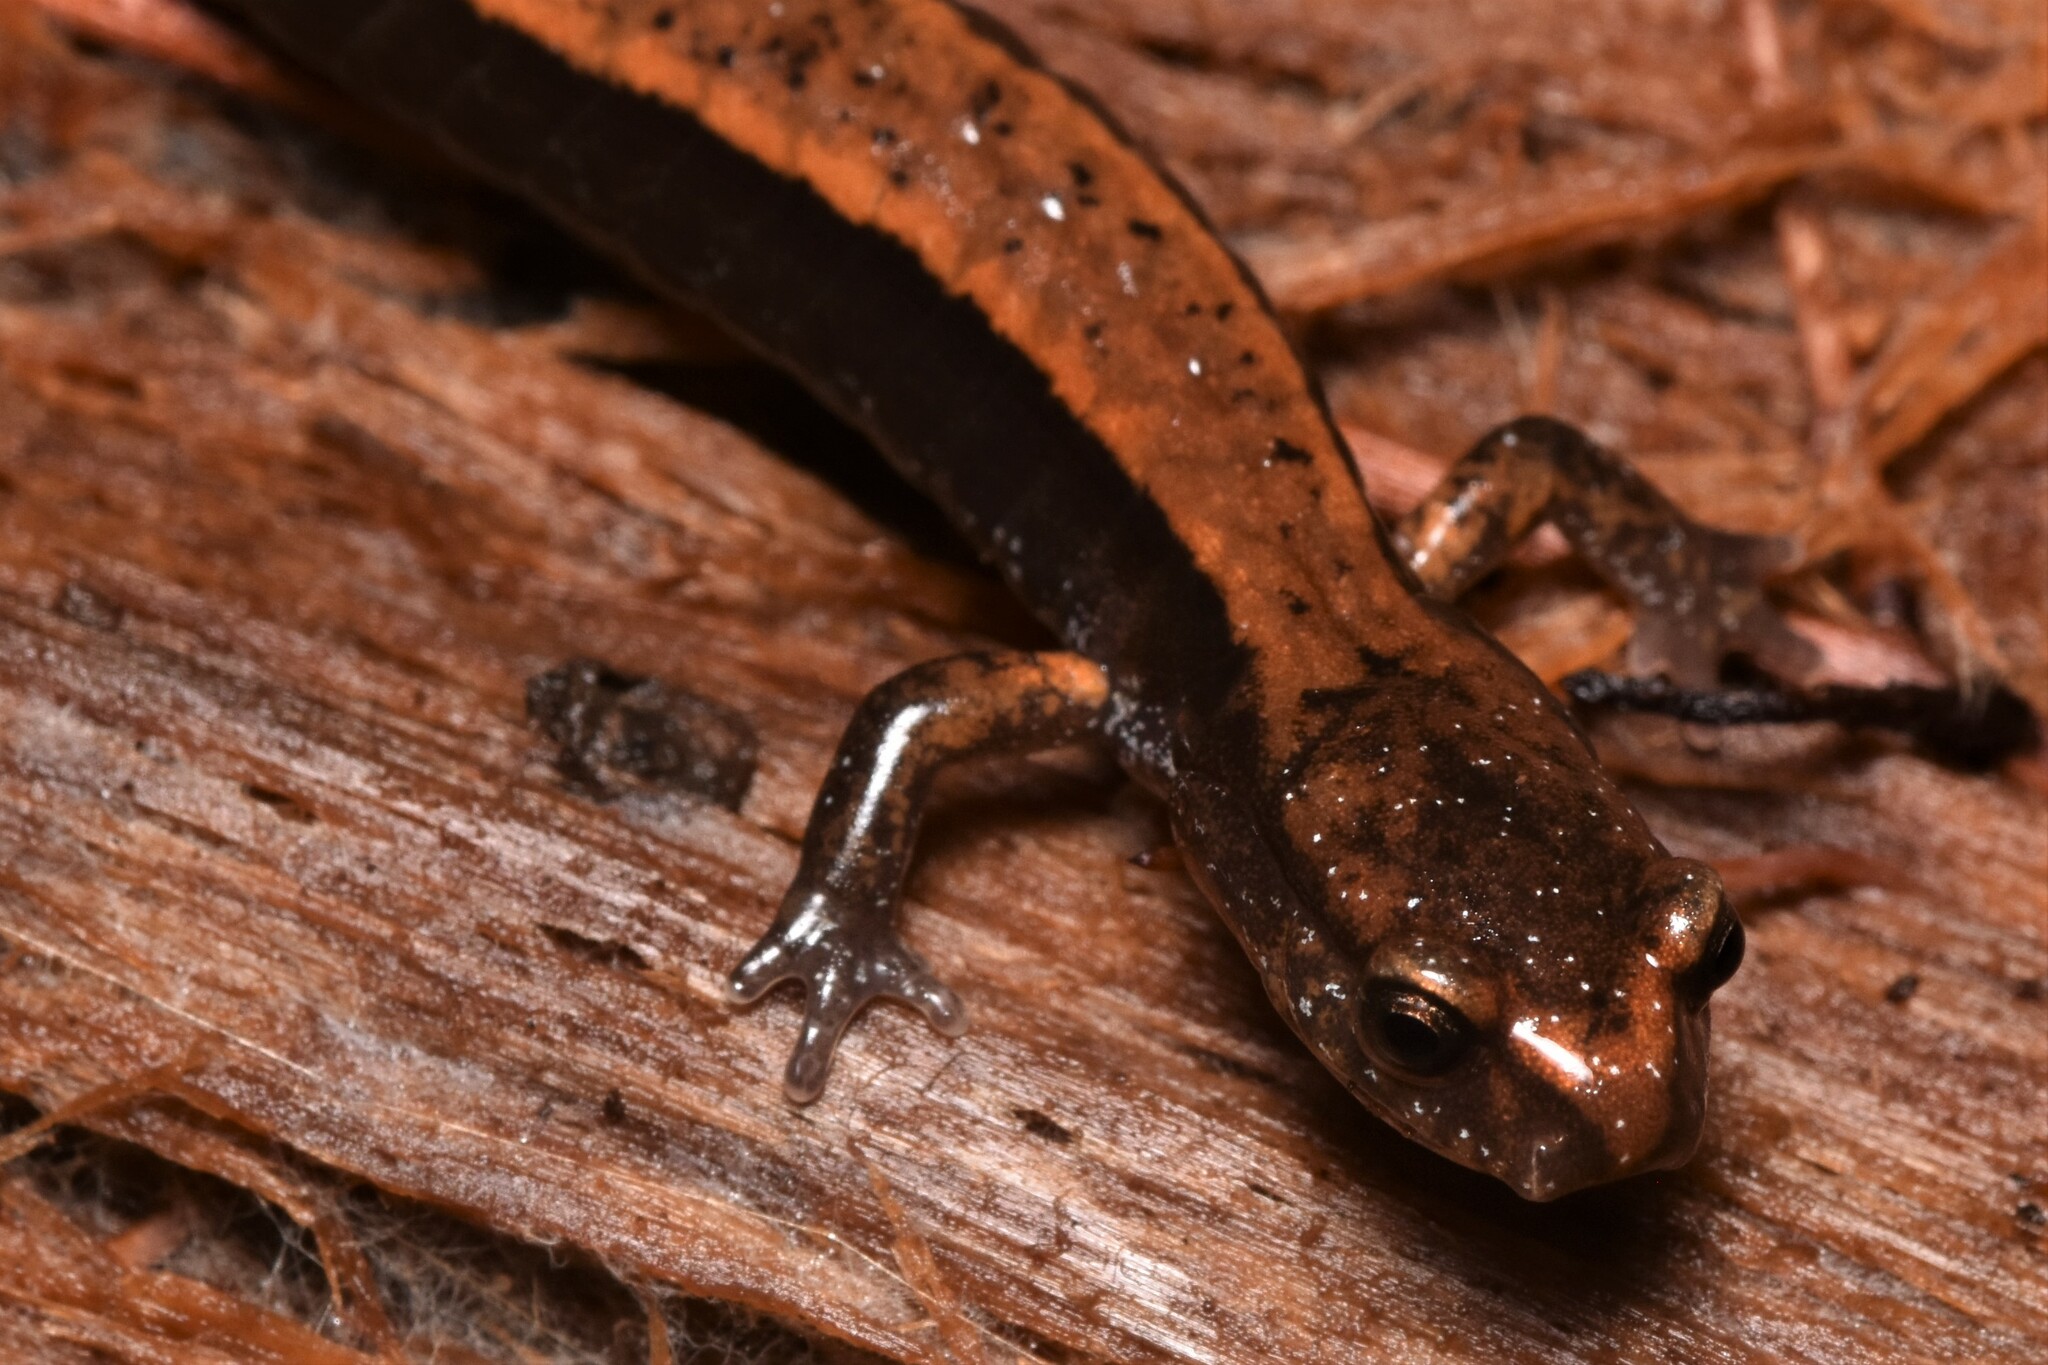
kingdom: Animalia
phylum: Chordata
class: Amphibia
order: Caudata
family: Plethodontidae
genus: Plethodon
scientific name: Plethodon vehiculum
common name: Western red-backed salamander
